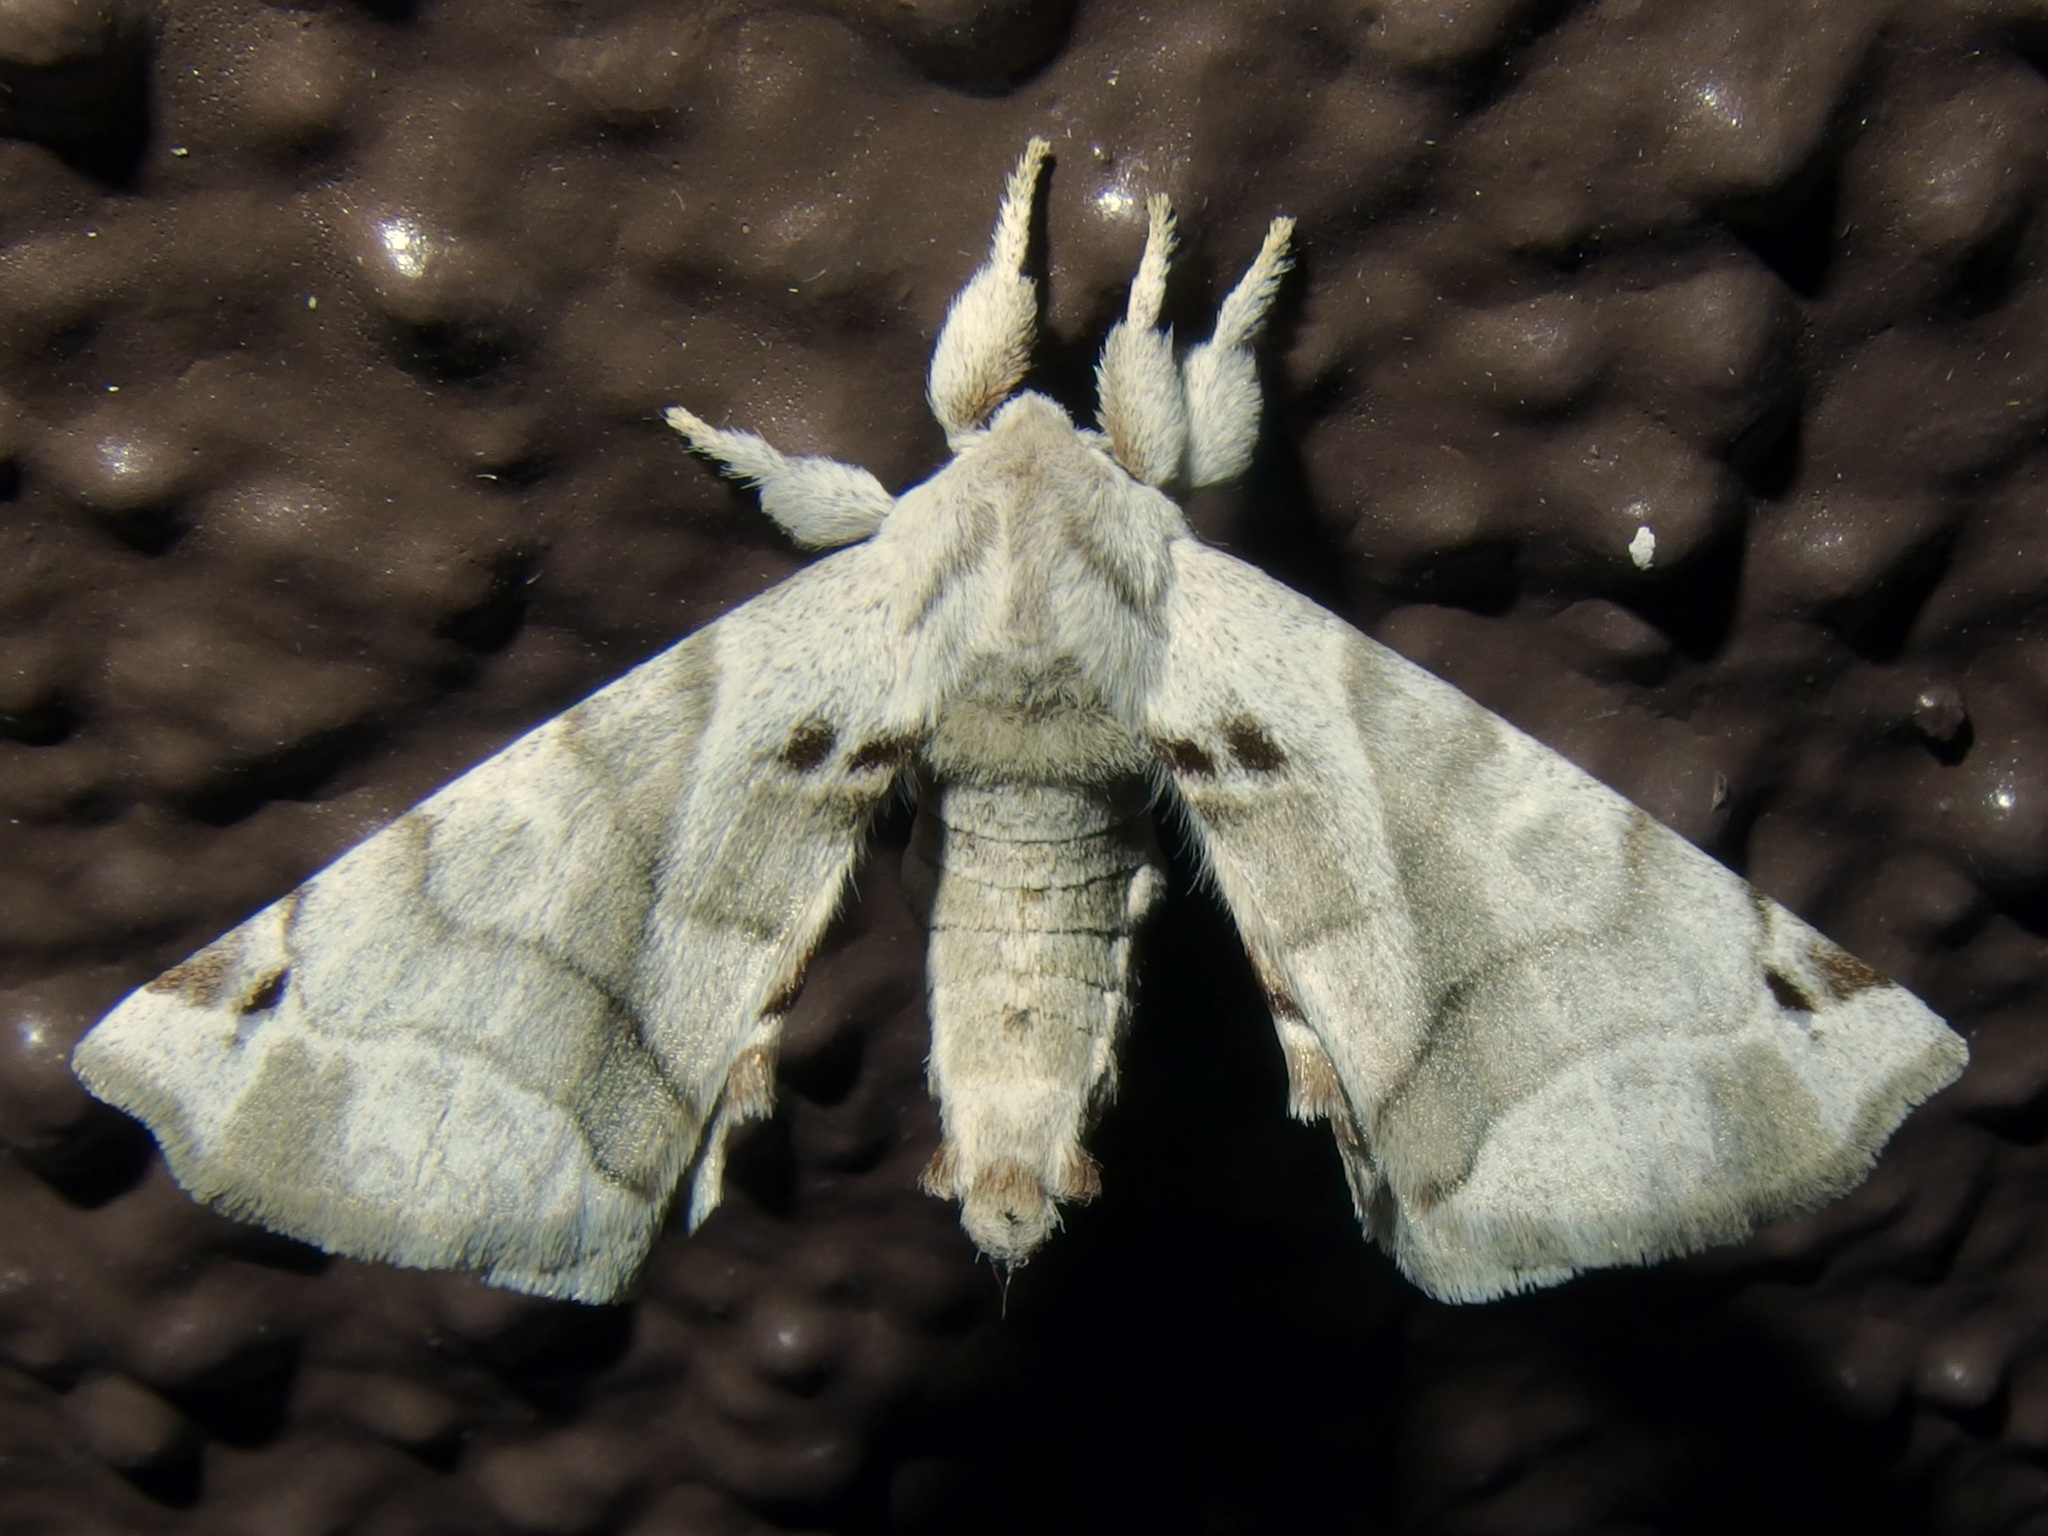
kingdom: Animalia
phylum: Arthropoda
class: Insecta
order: Lepidoptera
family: Apatelodidae
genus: Hygrochroa
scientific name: Hygrochroa Apatelodes pudefacta
